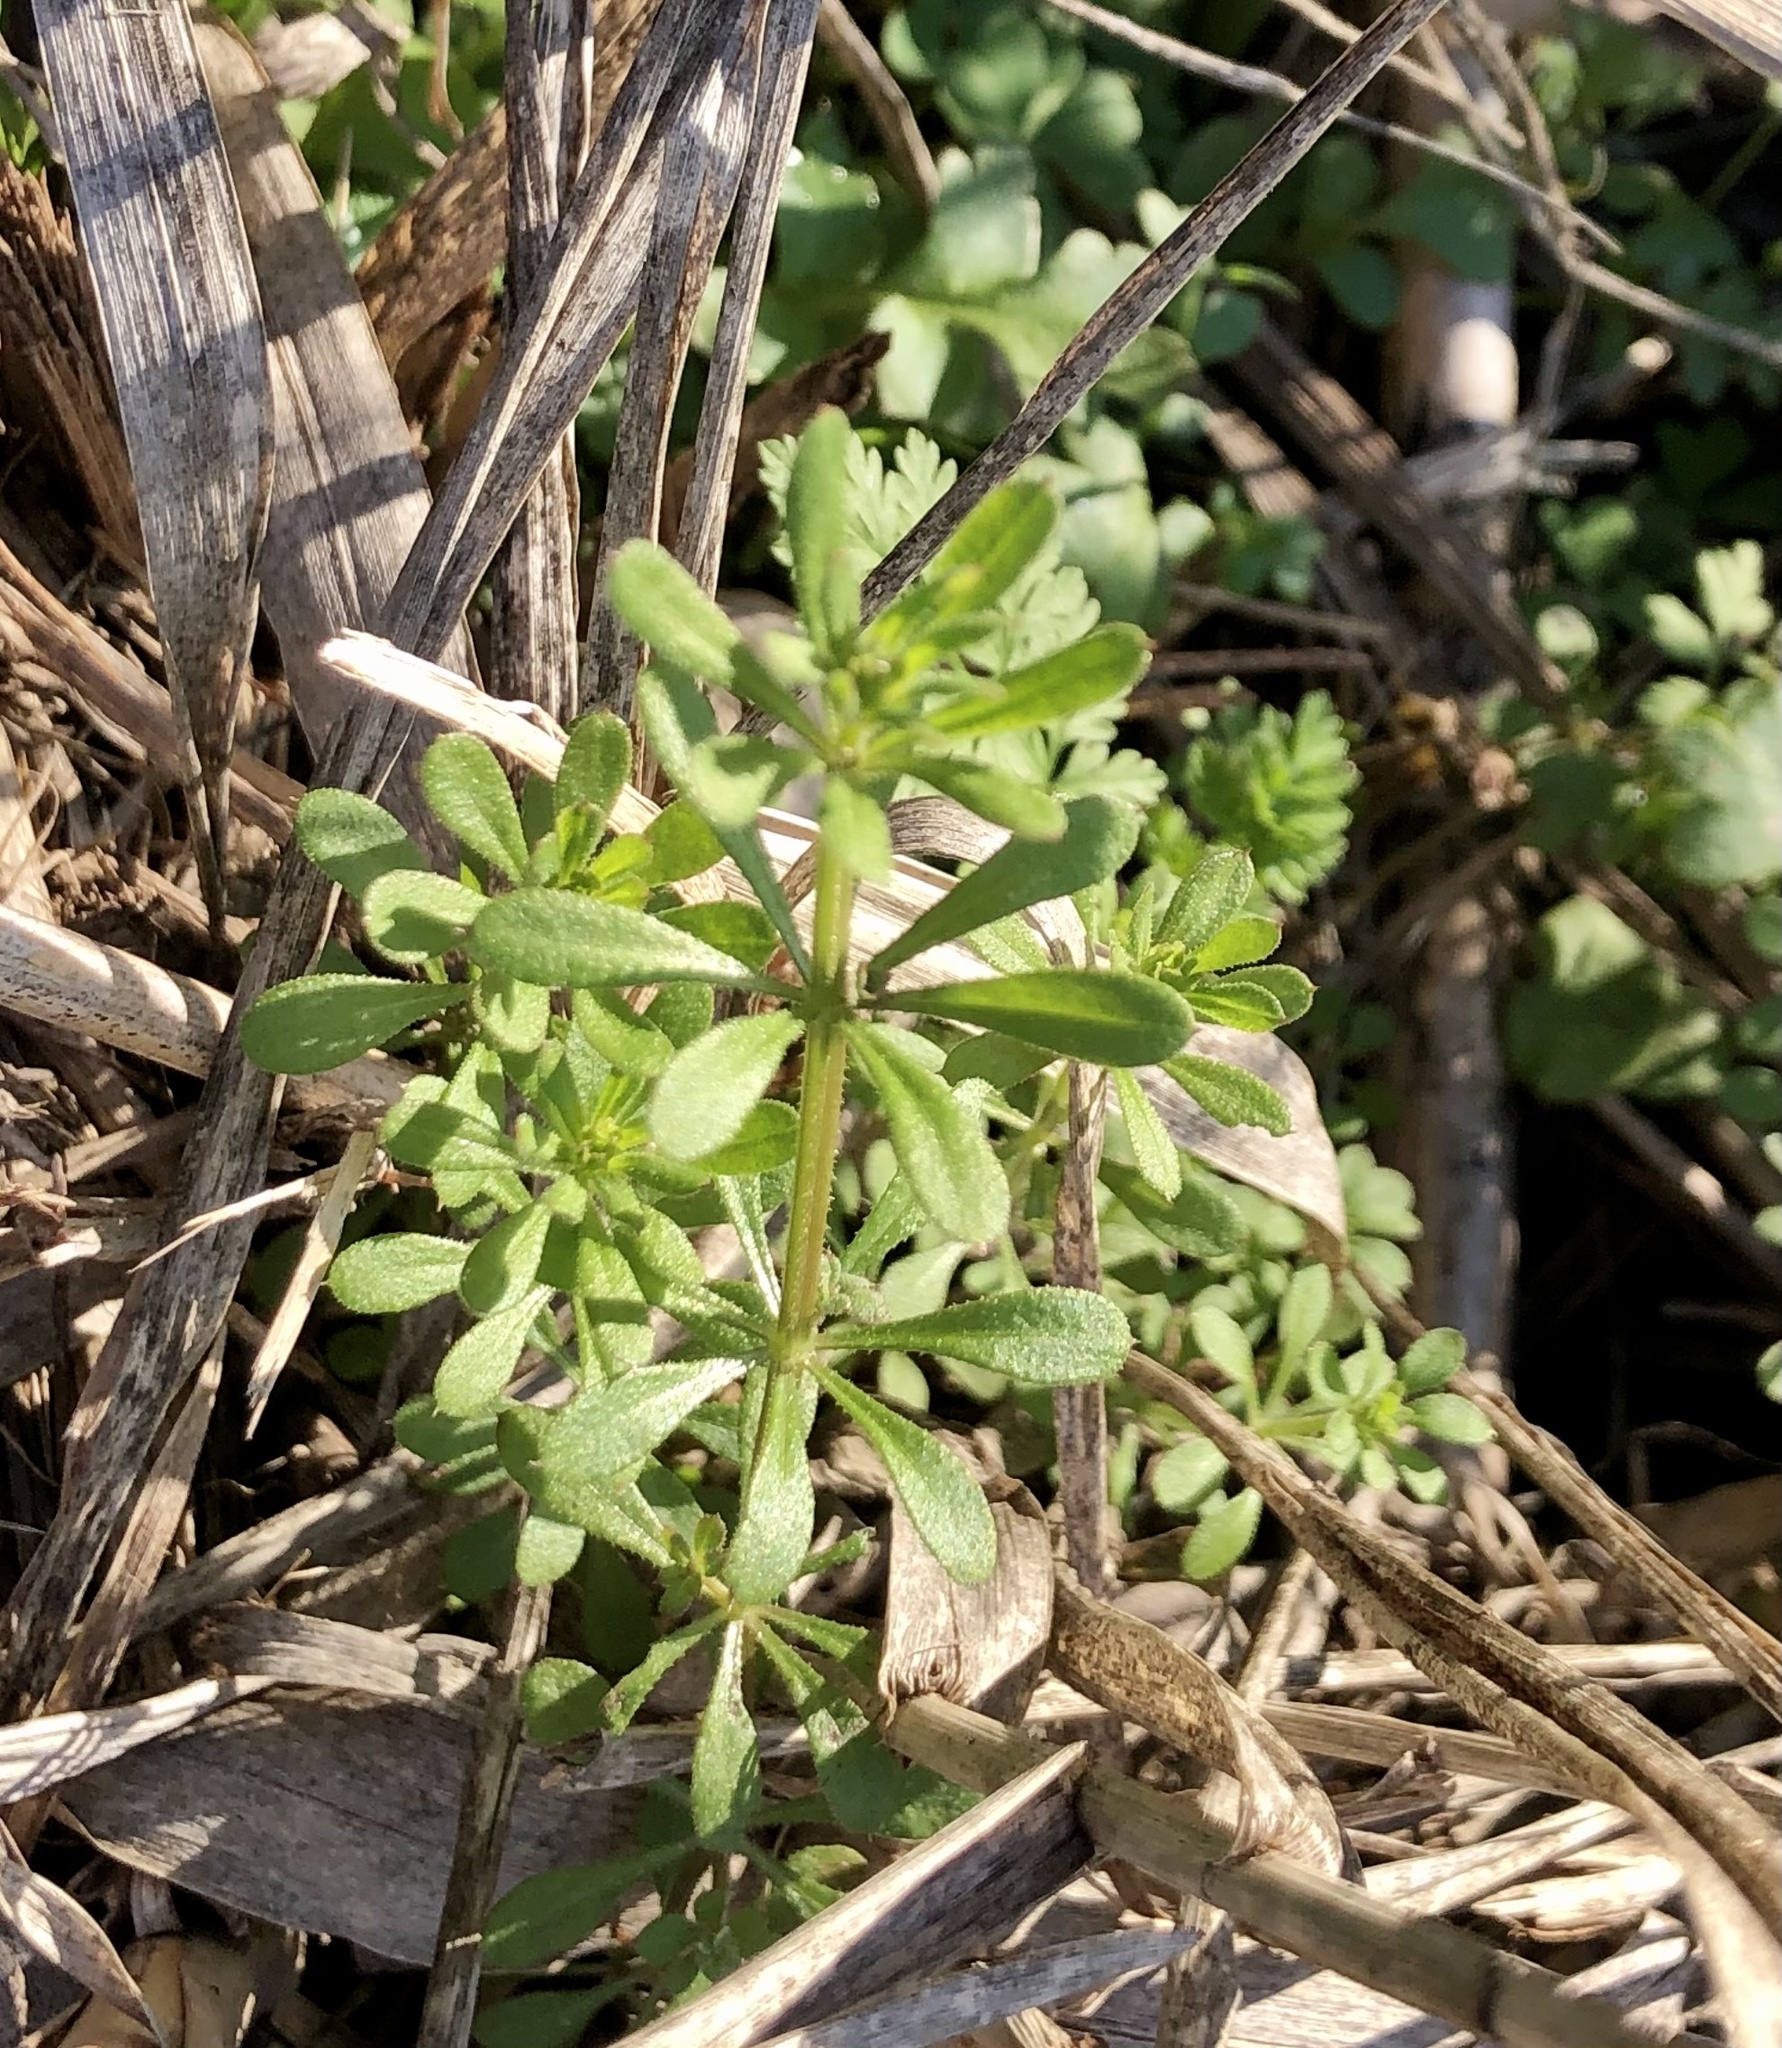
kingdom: Plantae
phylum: Tracheophyta
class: Magnoliopsida
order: Gentianales
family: Rubiaceae
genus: Galium
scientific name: Galium aparine
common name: Cleavers
